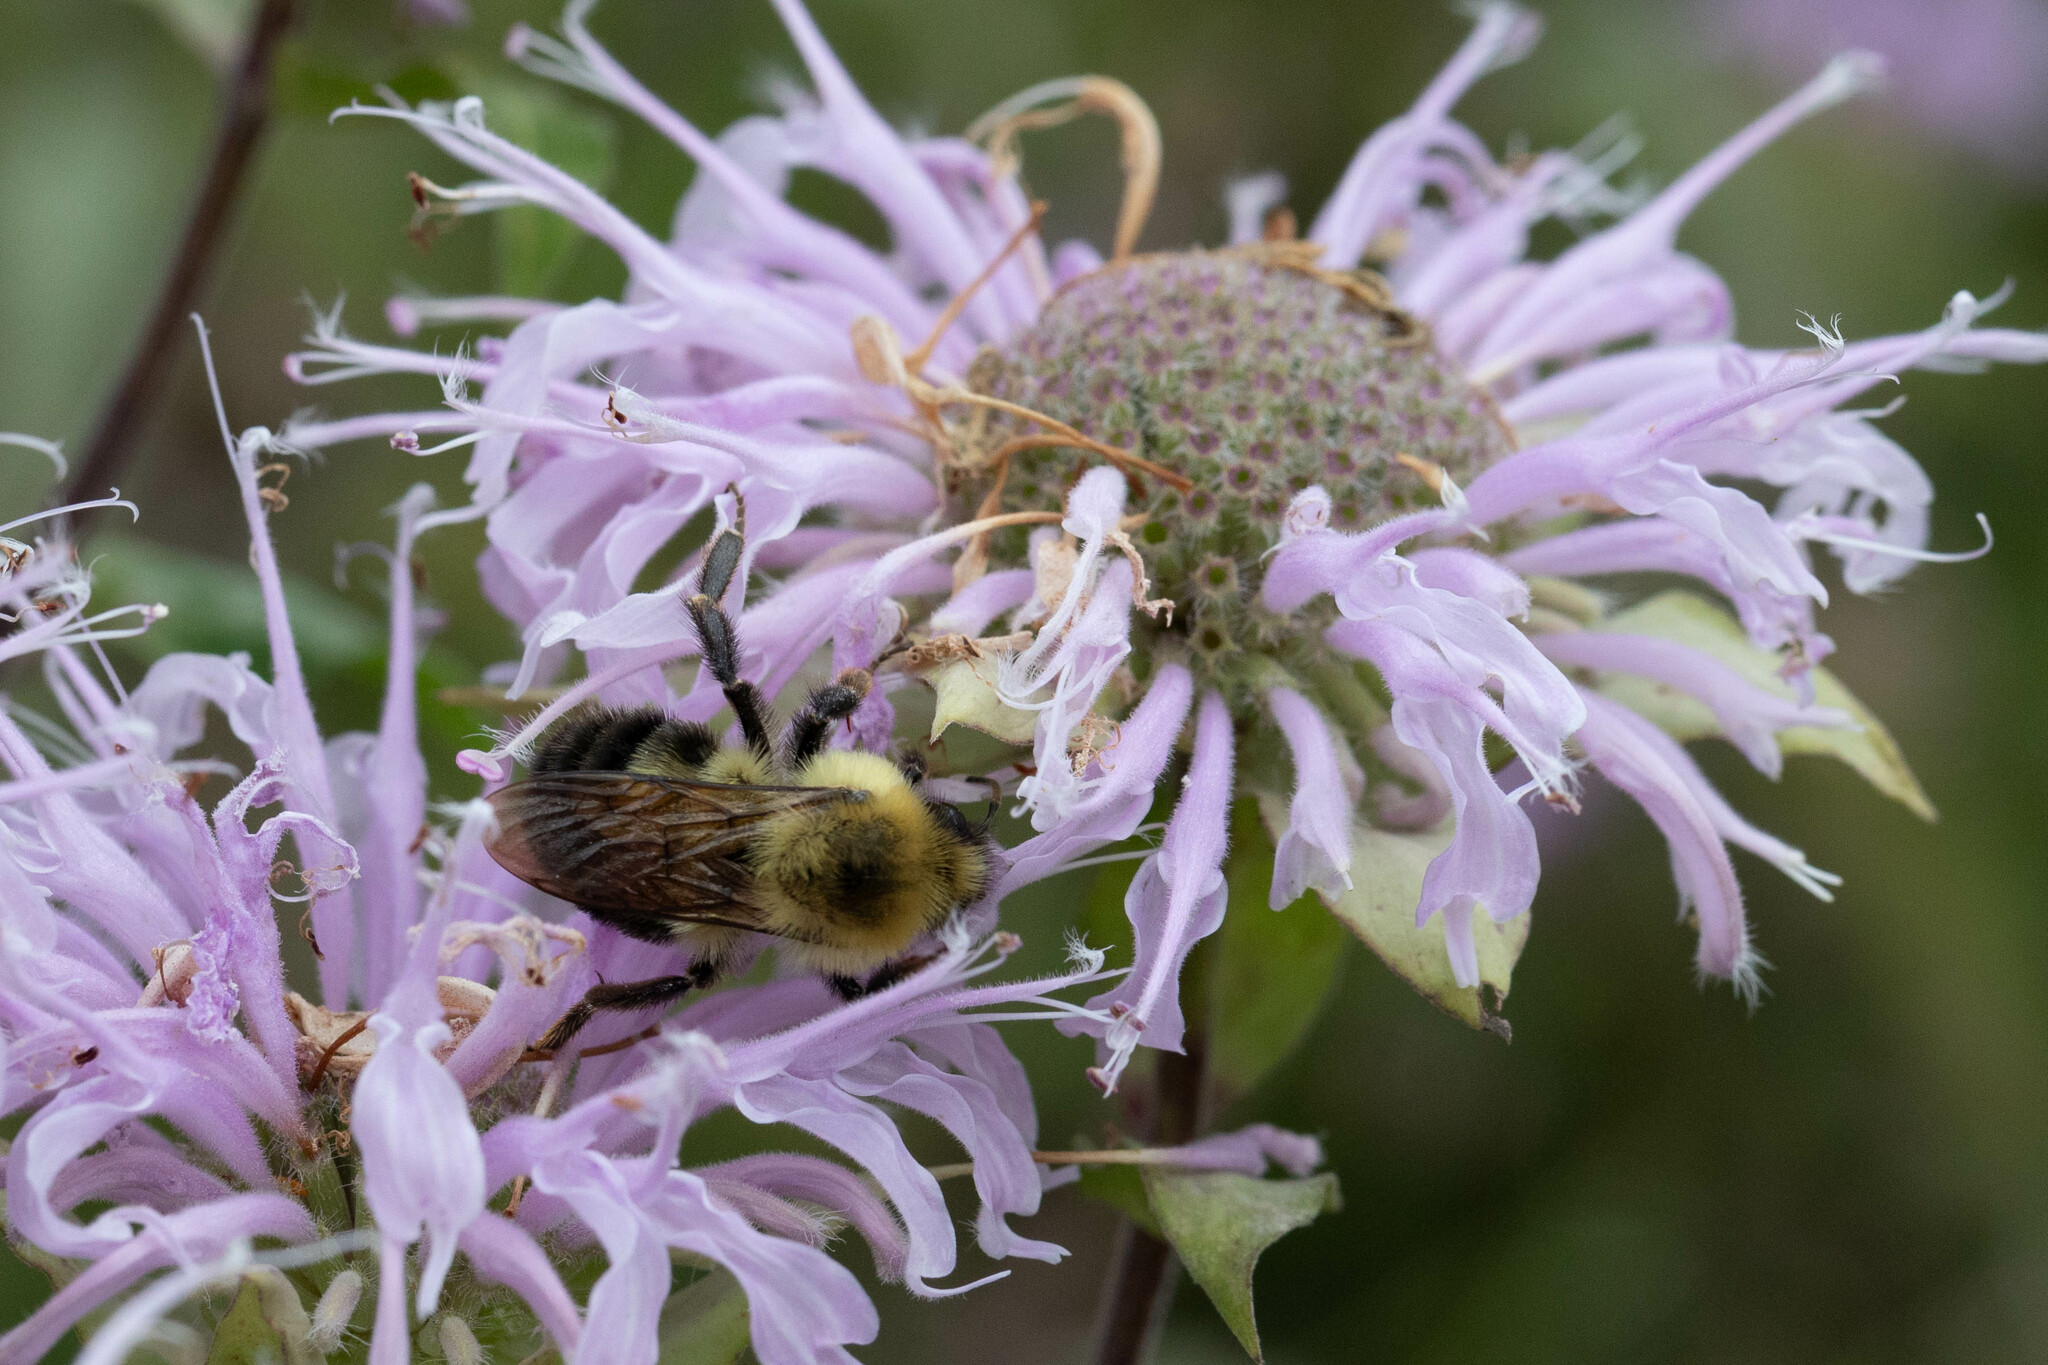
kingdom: Animalia
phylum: Arthropoda
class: Insecta
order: Hymenoptera
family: Apidae
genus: Bombus
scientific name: Bombus bimaculatus
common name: Two-spotted bumble bee
